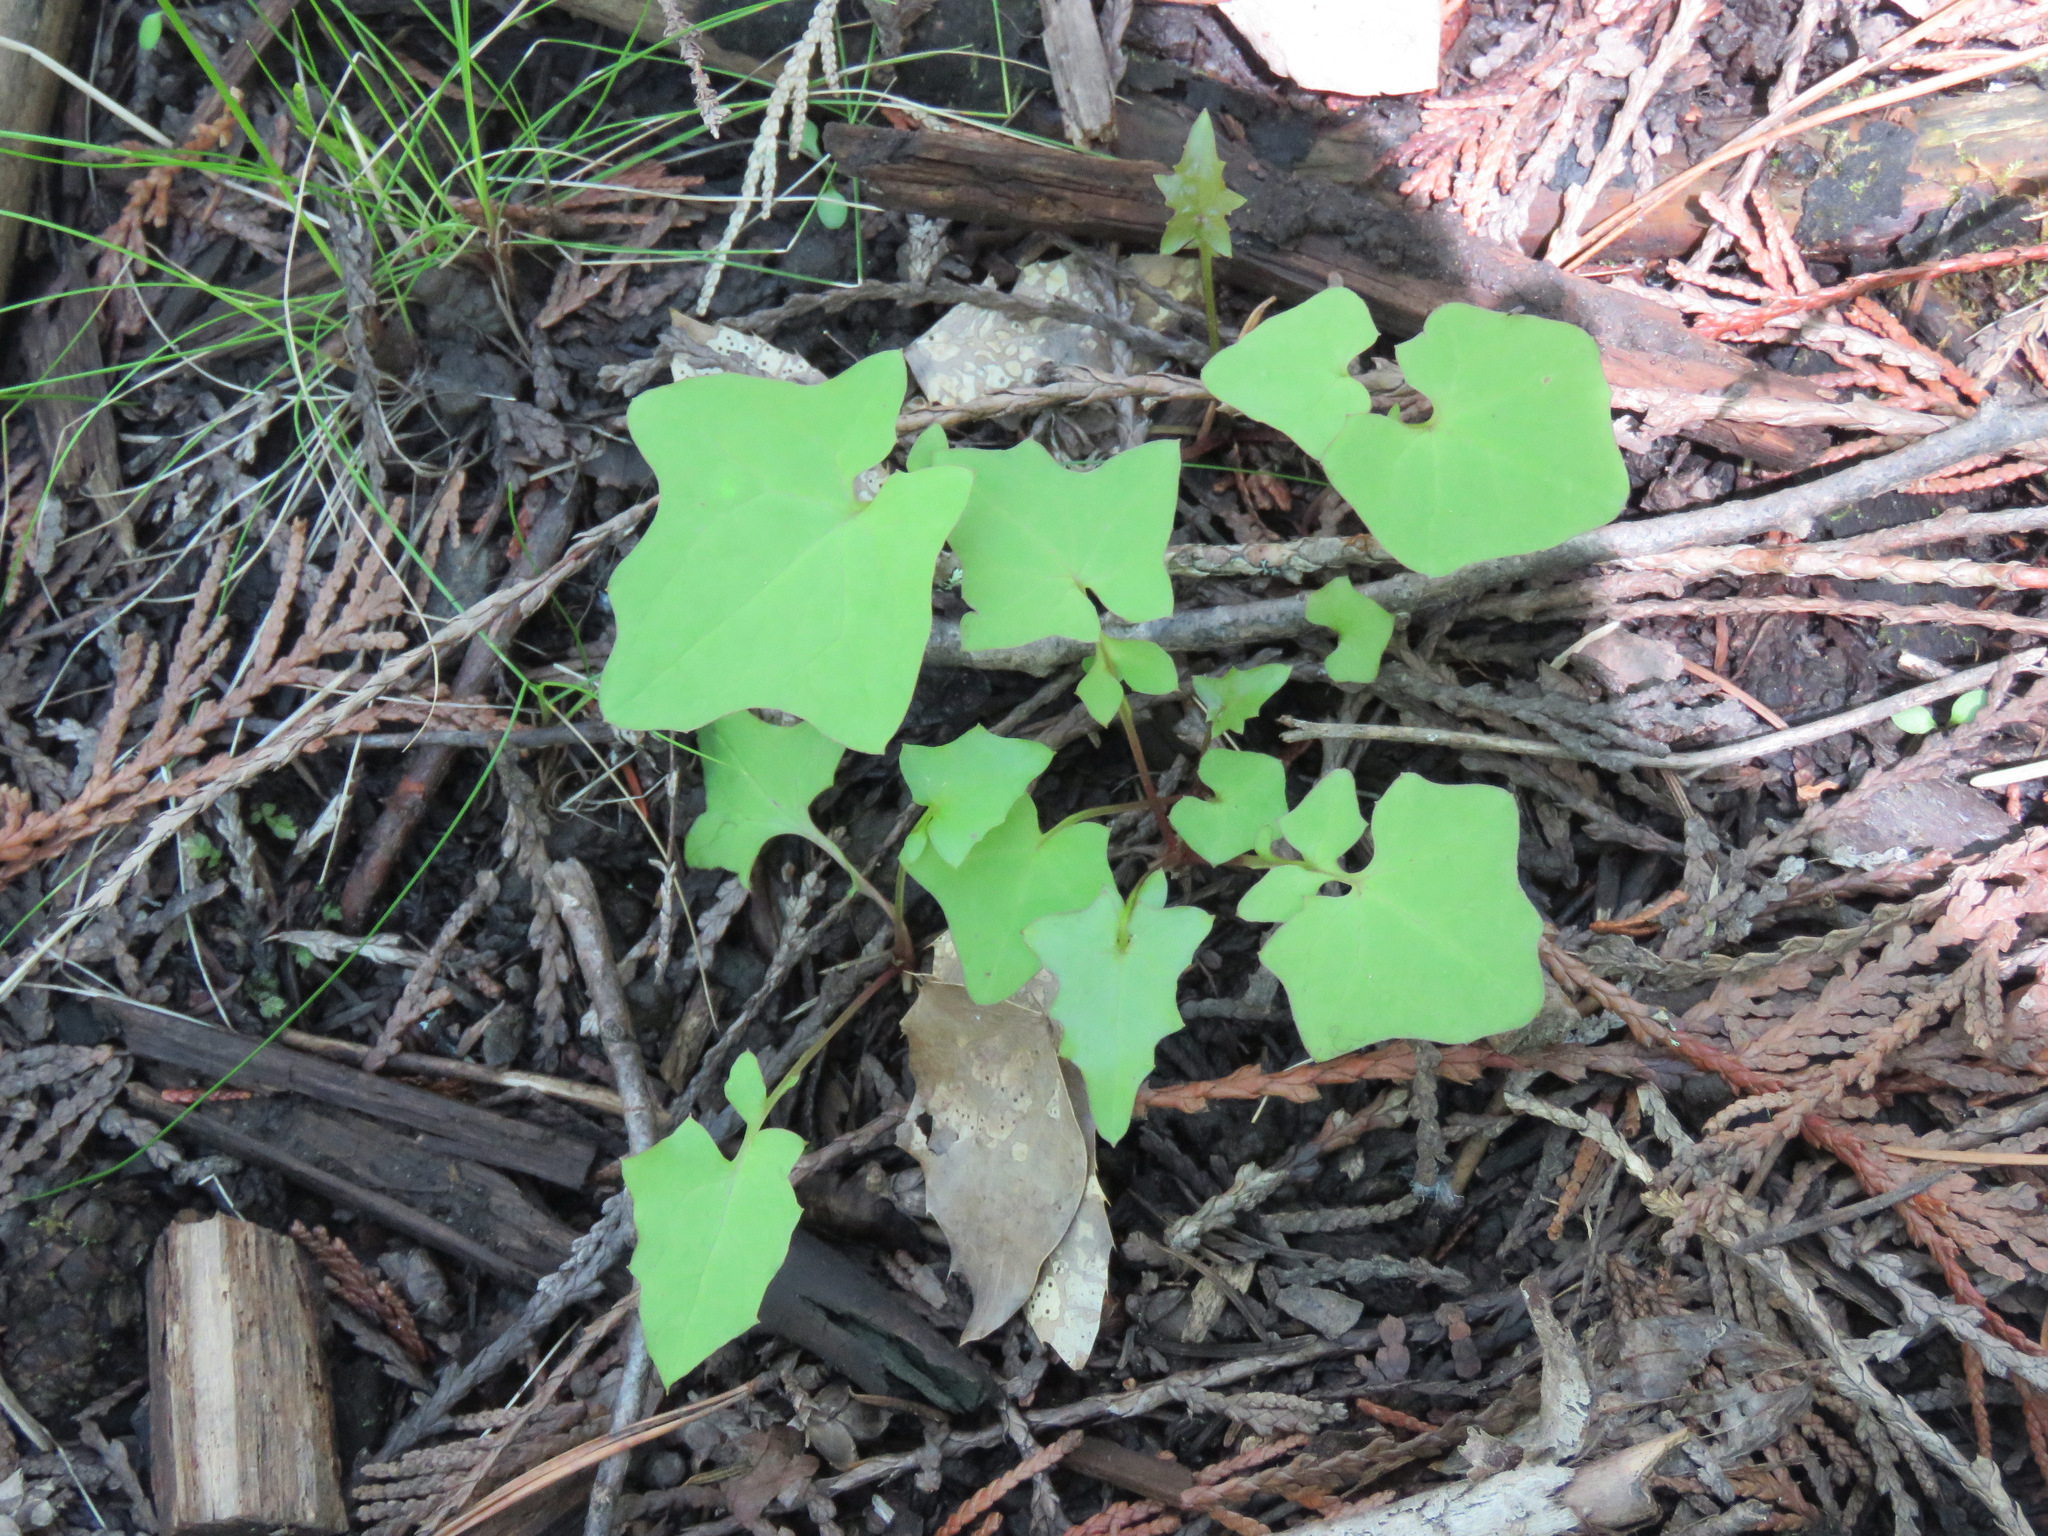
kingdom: Plantae
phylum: Tracheophyta
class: Magnoliopsida
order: Asterales
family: Asteraceae
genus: Mycelis
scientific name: Mycelis muralis
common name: Wall lettuce
